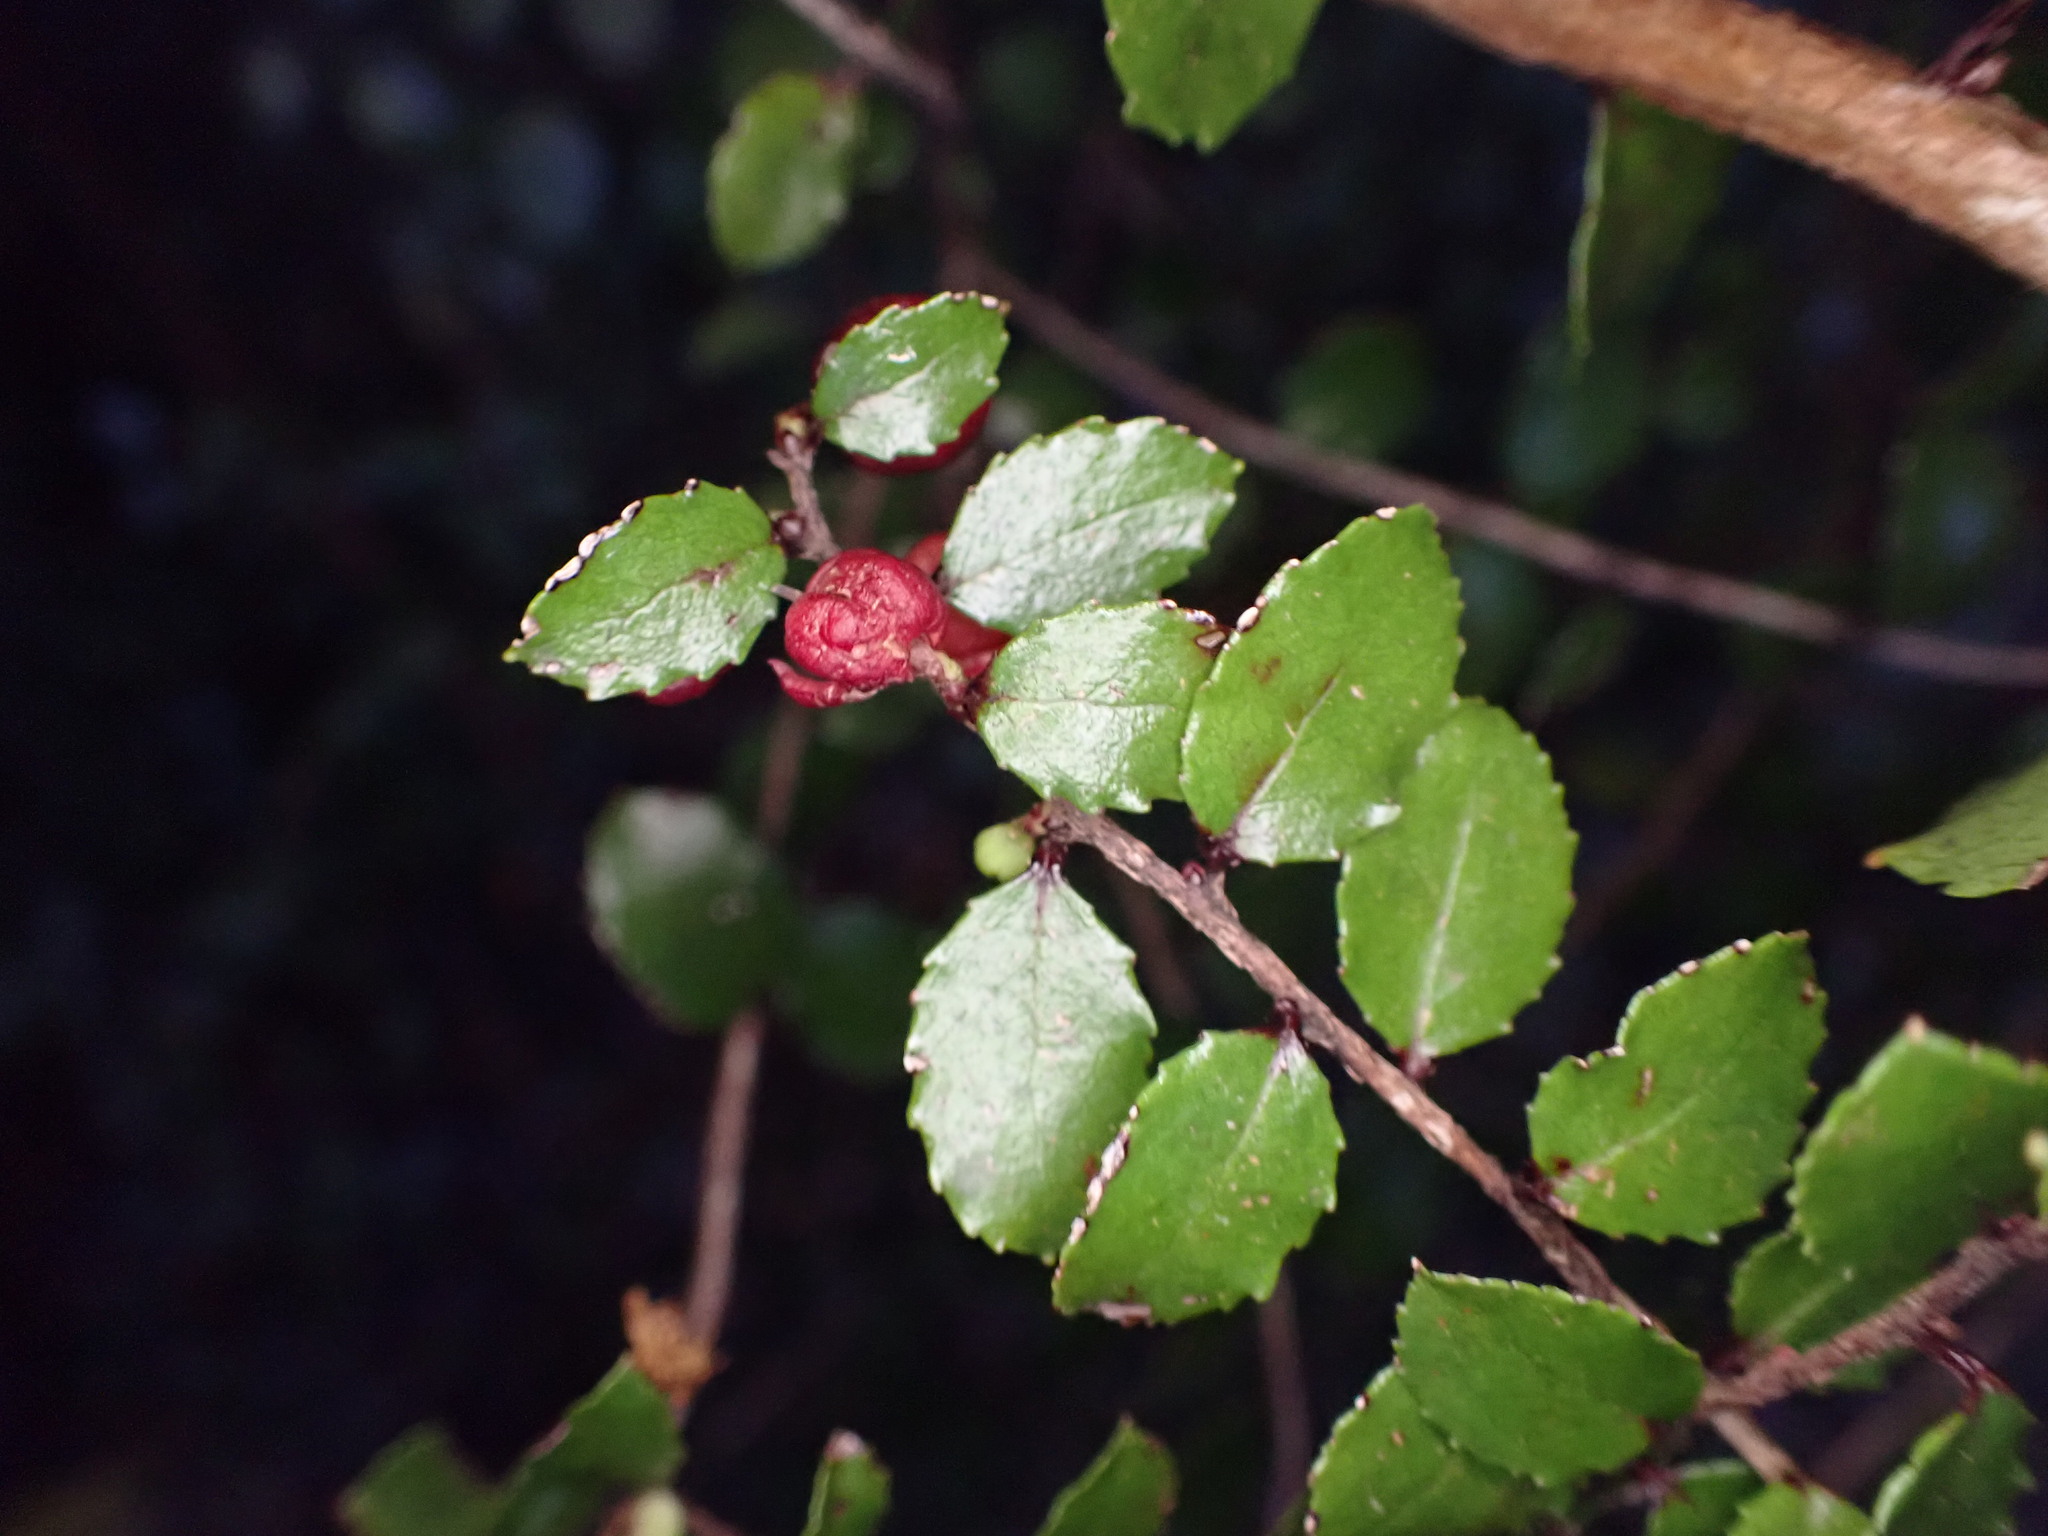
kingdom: Plantae
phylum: Tracheophyta
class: Magnoliopsida
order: Ericales
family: Ericaceae
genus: Gaultheria
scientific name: Gaultheria antipoda
